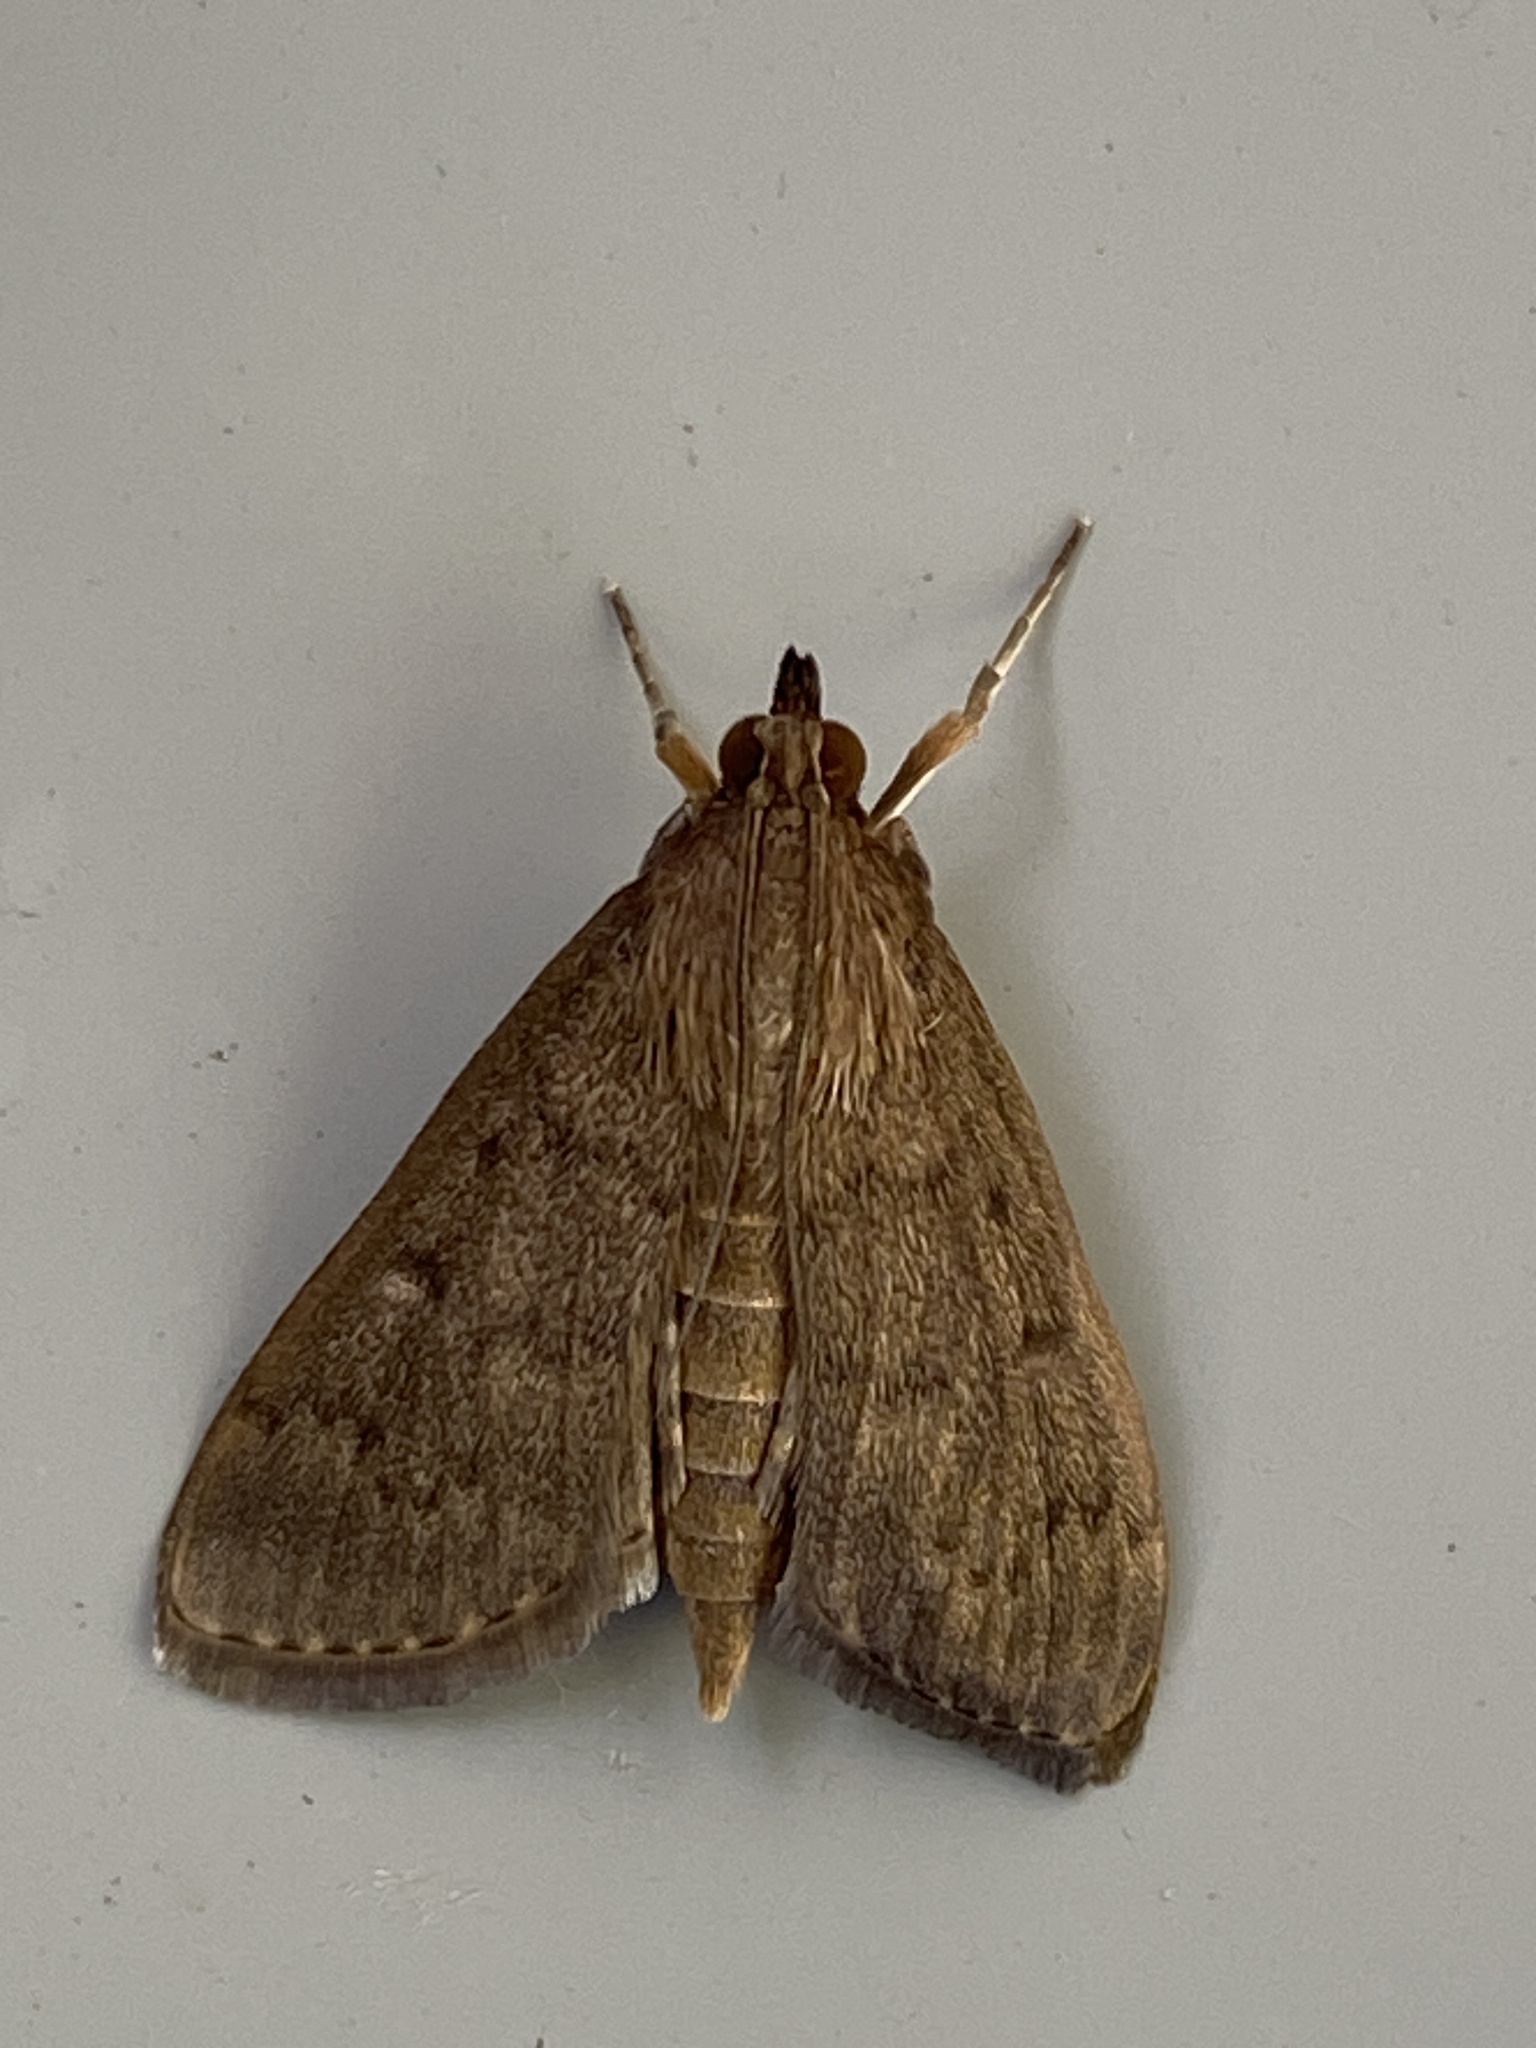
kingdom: Animalia
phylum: Arthropoda
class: Insecta
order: Lepidoptera
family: Crambidae
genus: Herpetogramma
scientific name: Herpetogramma licarsisalis
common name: Grass webworm
